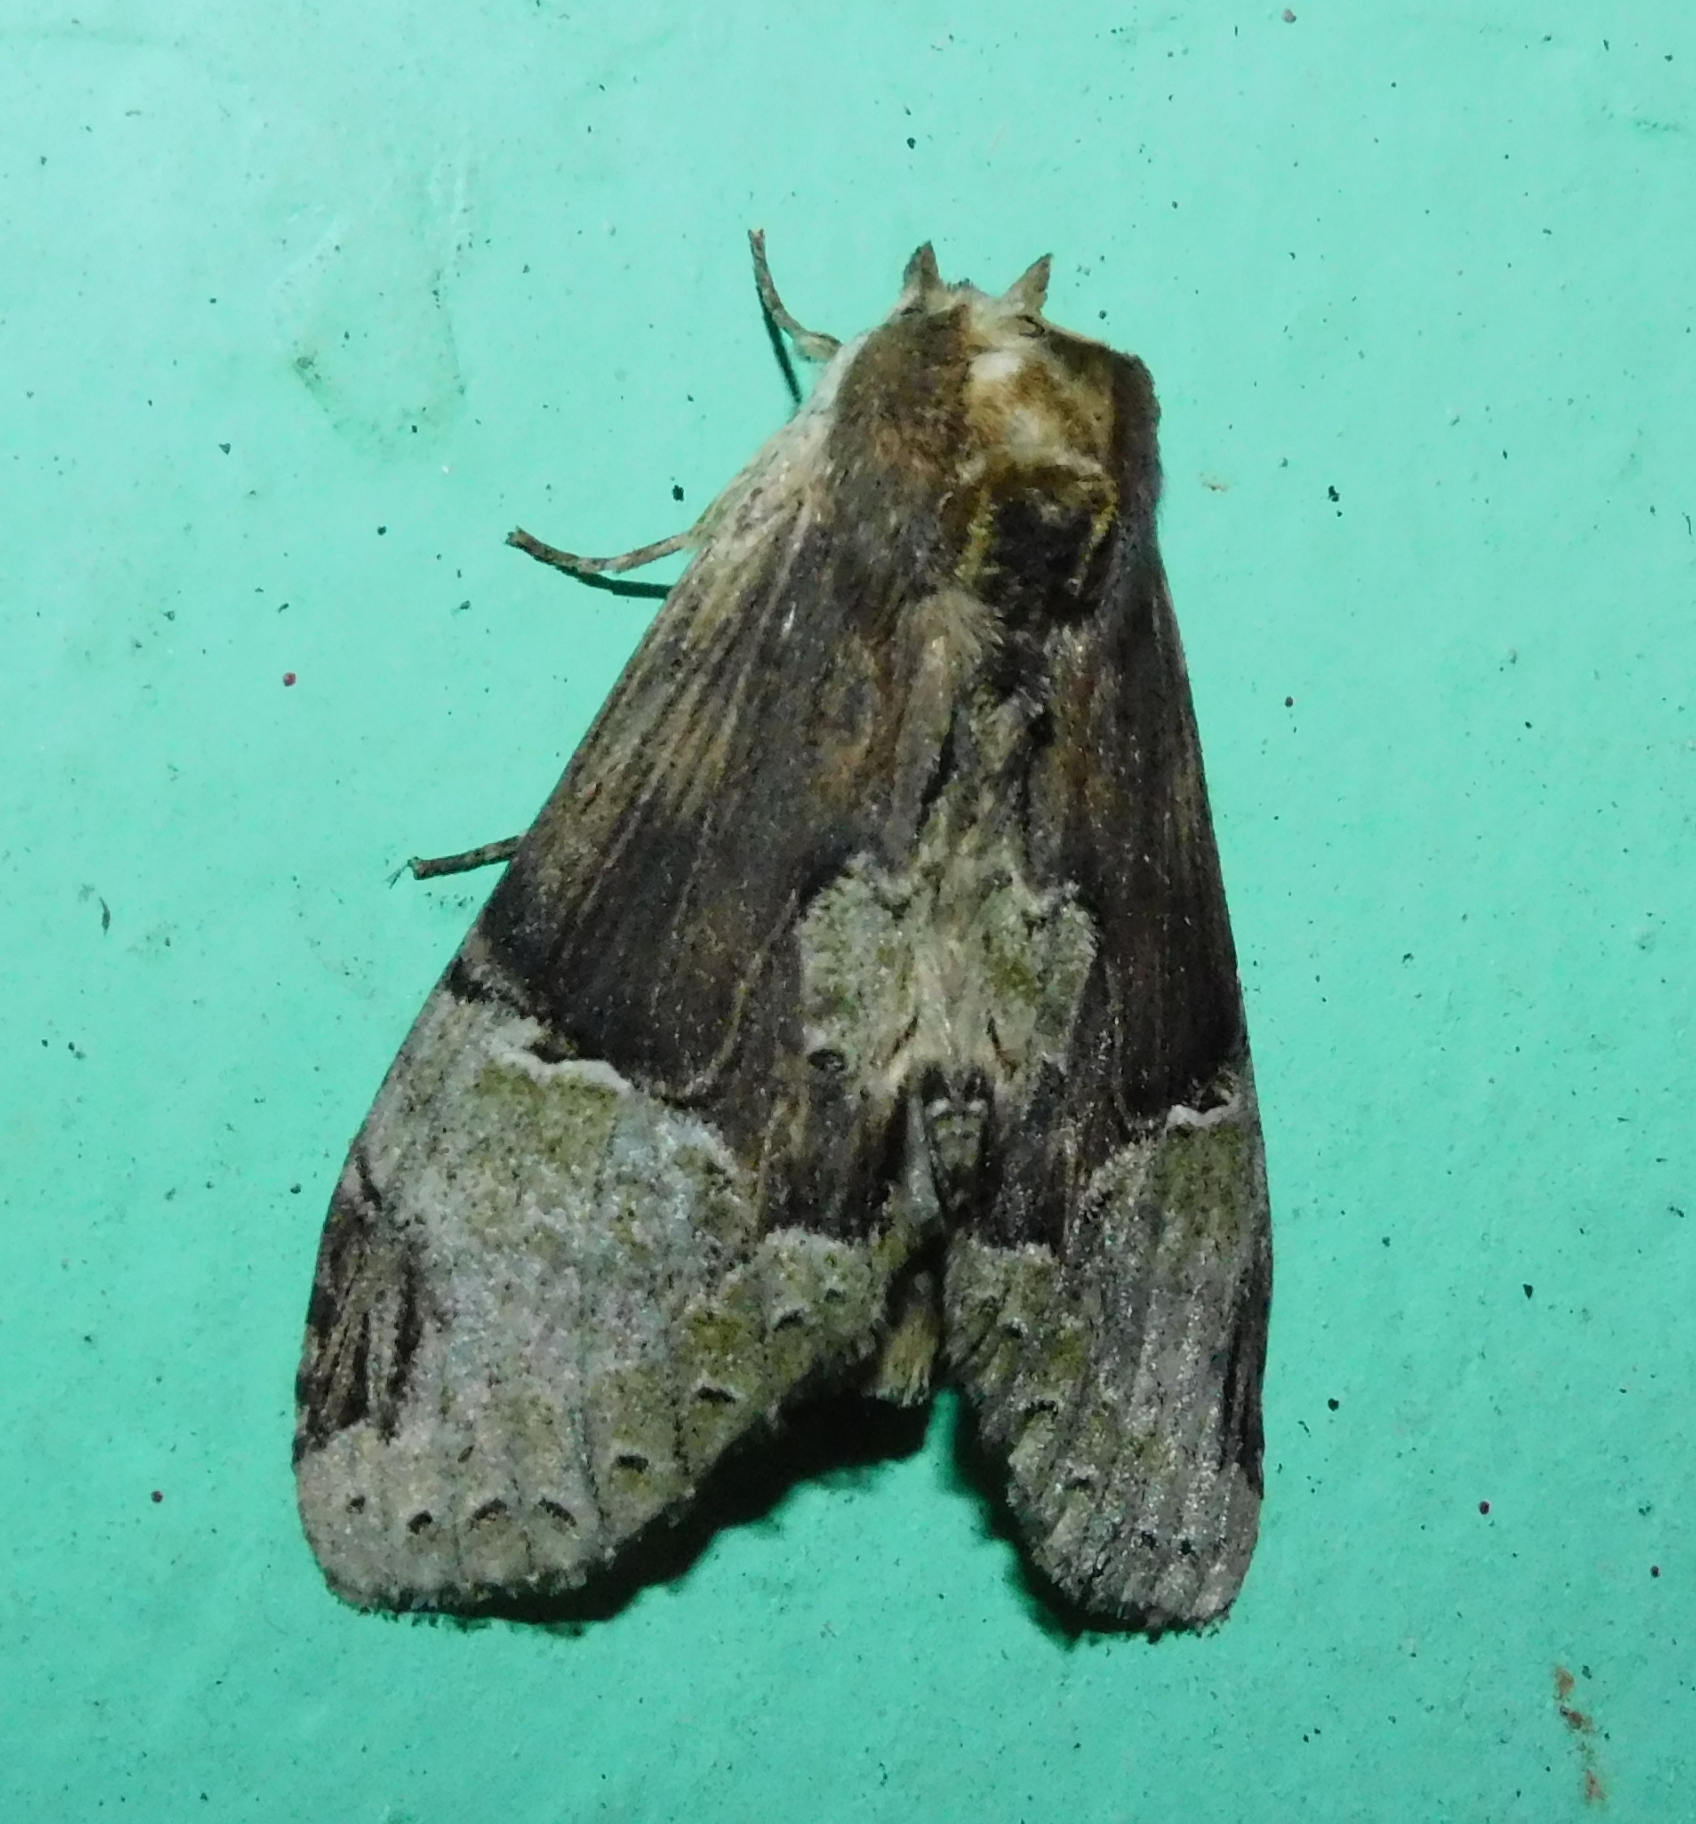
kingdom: Animalia
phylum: Arthropoda
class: Insecta
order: Lepidoptera
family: Notodontidae
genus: Chadisra
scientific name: Chadisra bipars
